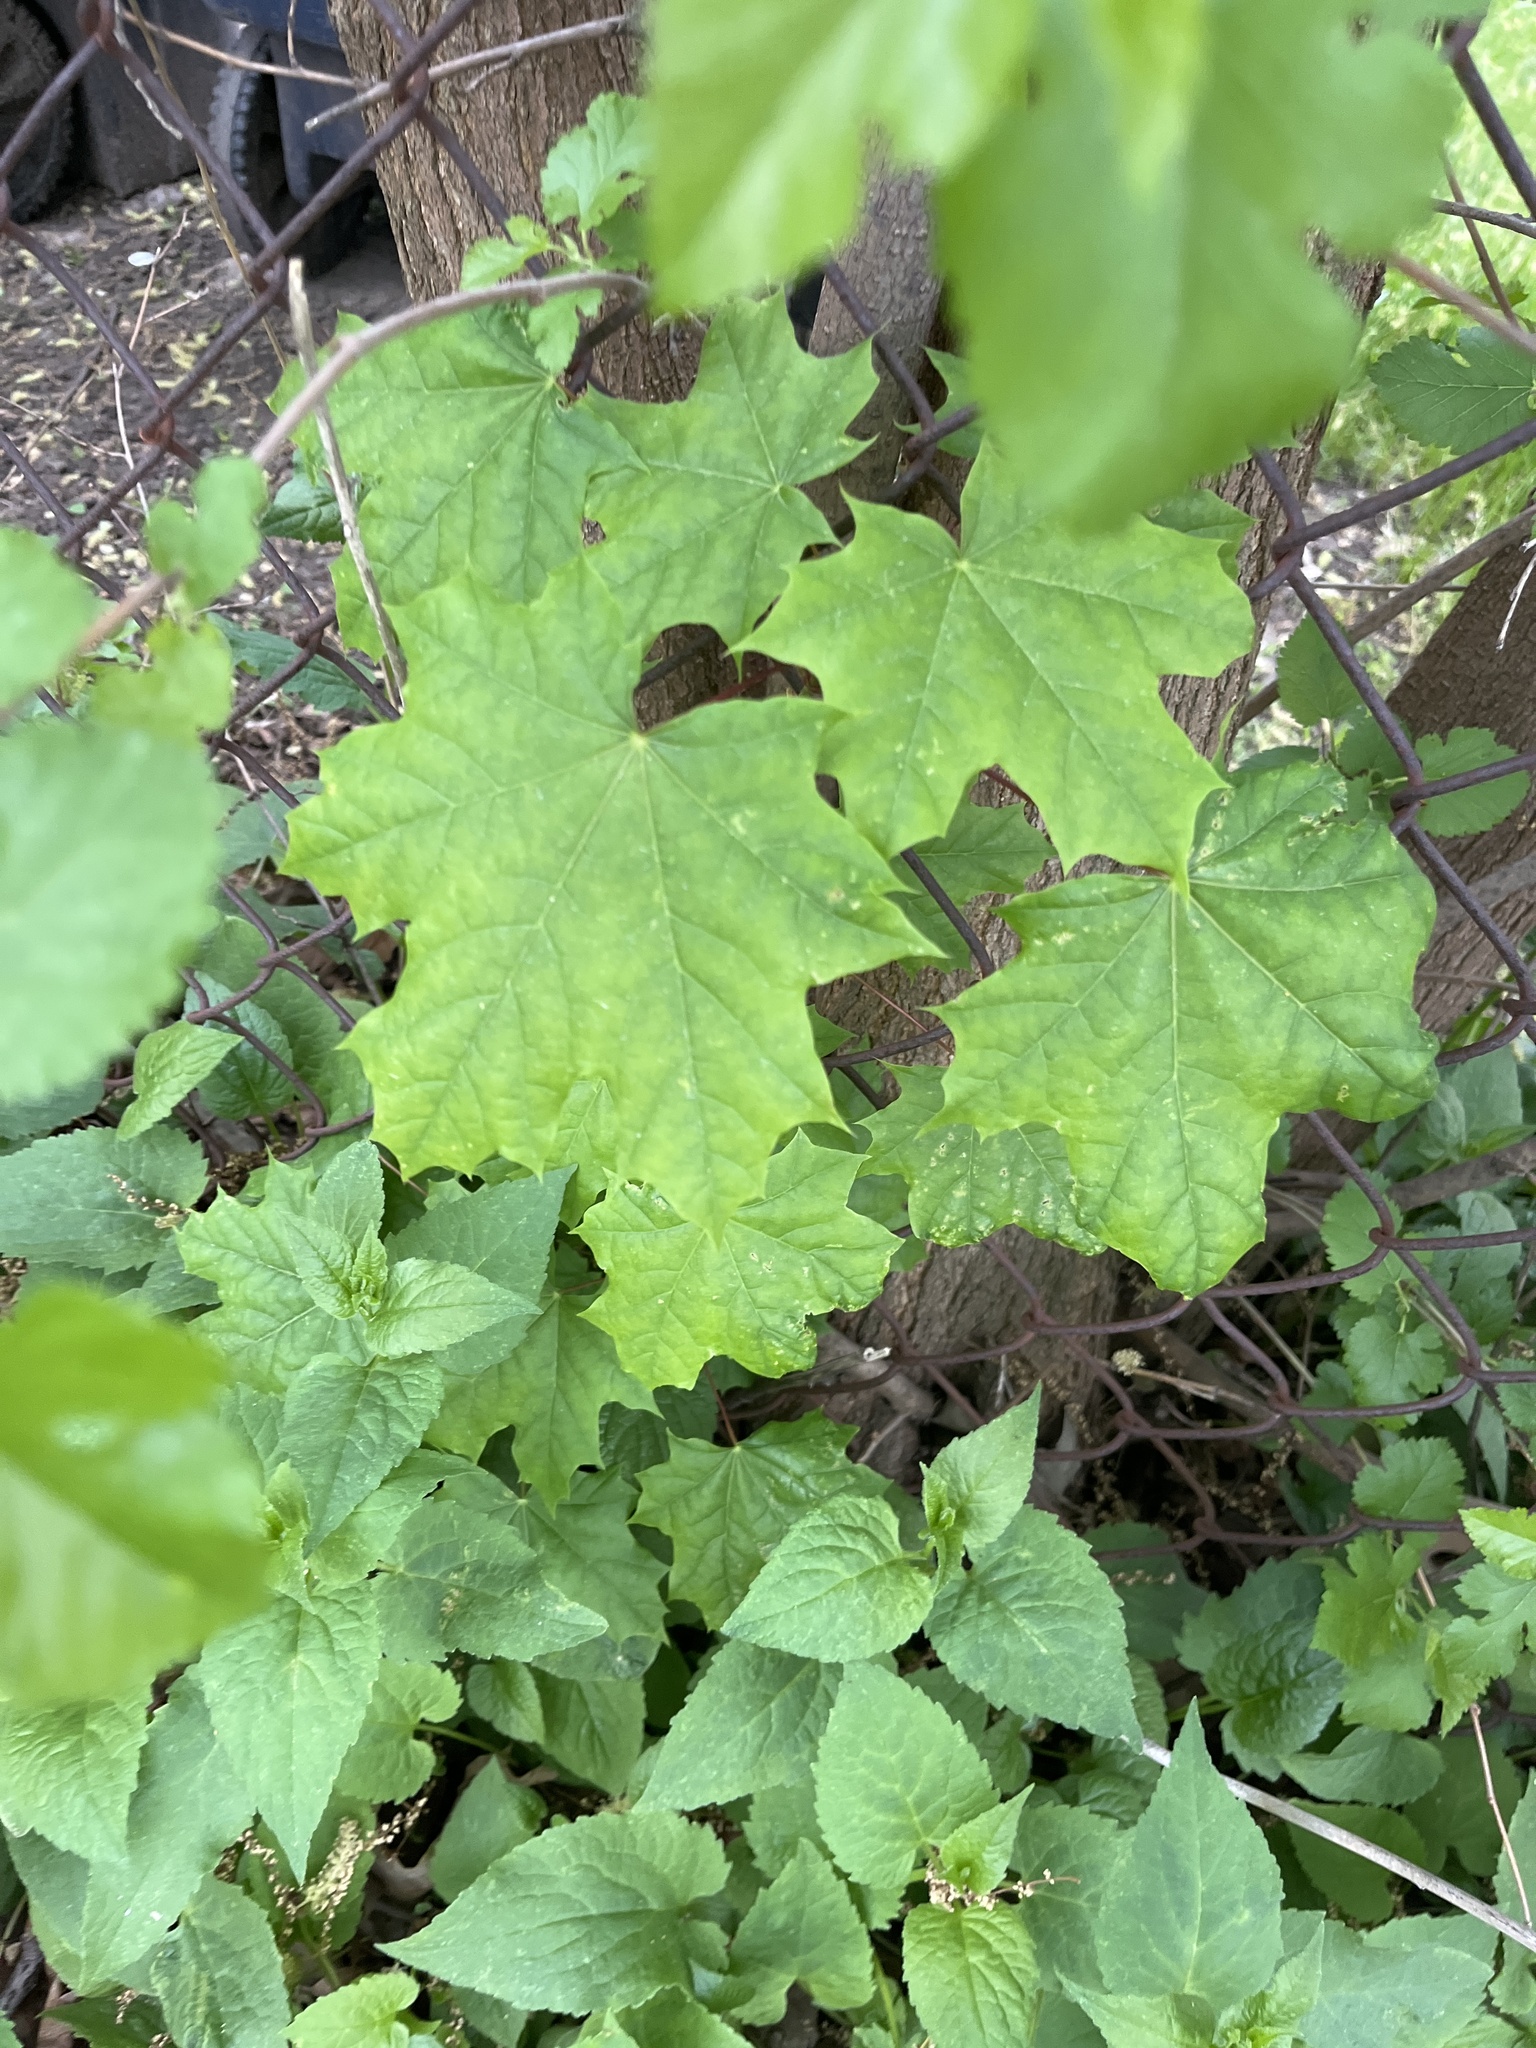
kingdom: Plantae
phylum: Tracheophyta
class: Magnoliopsida
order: Sapindales
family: Sapindaceae
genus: Acer
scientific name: Acer platanoides
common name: Norway maple
